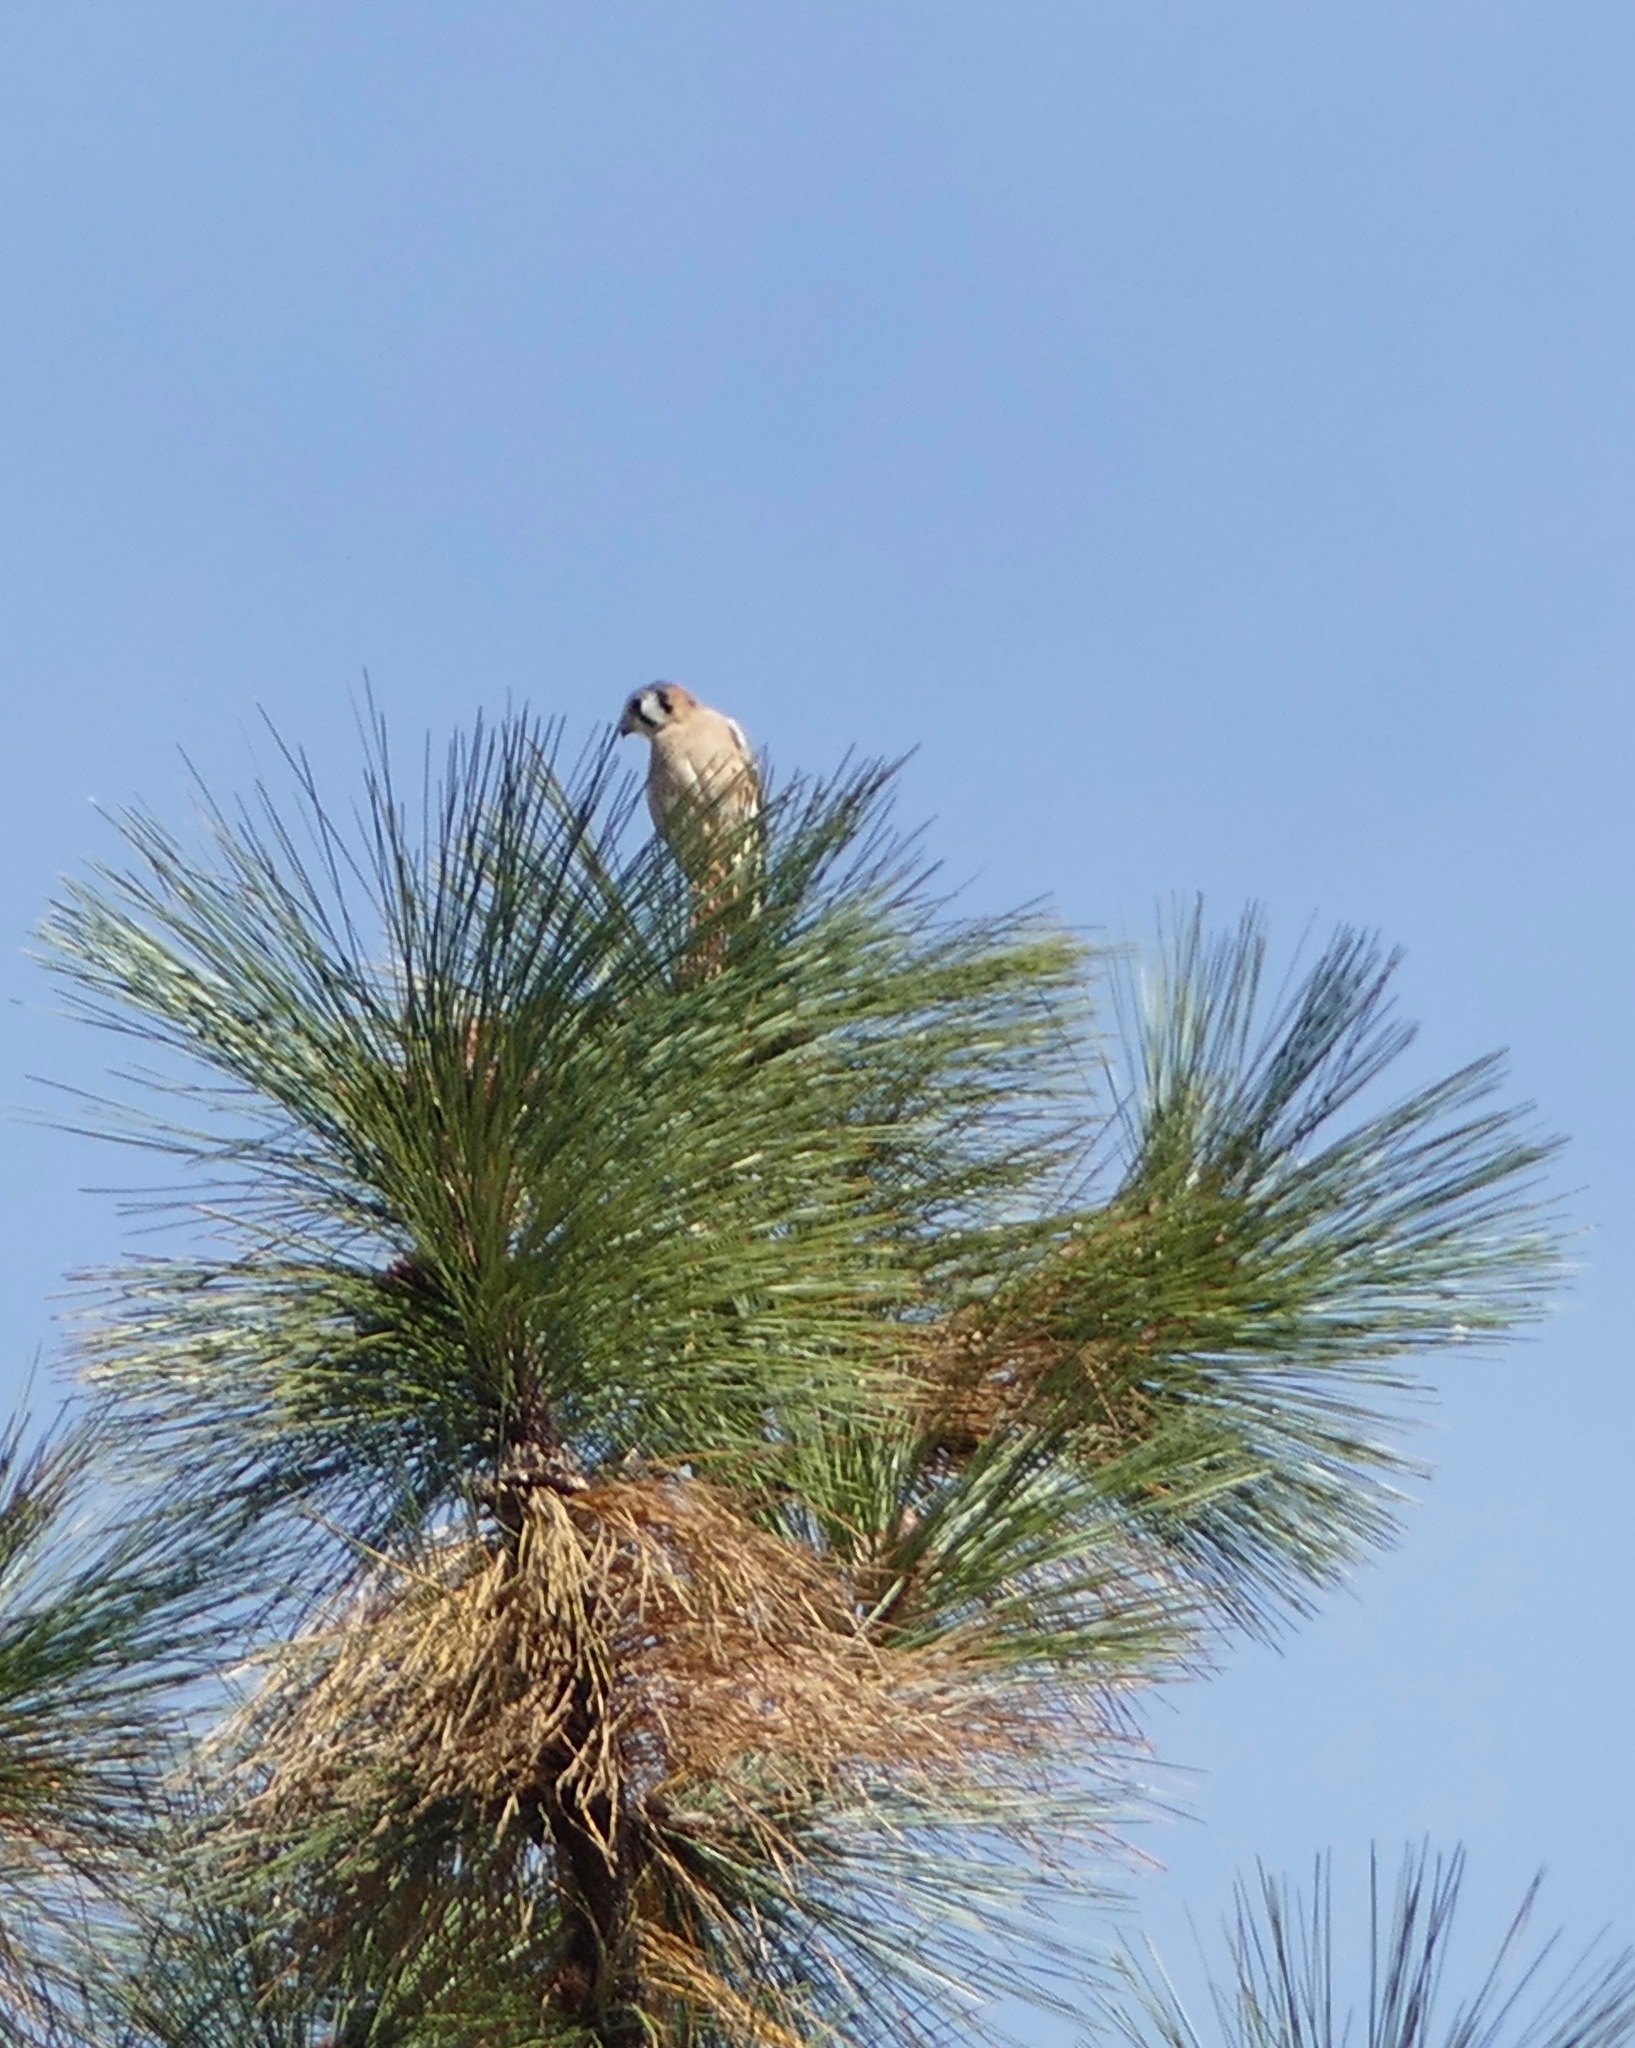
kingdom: Animalia
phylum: Chordata
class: Aves
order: Falconiformes
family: Falconidae
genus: Falco
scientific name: Falco sparverius
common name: American kestrel
